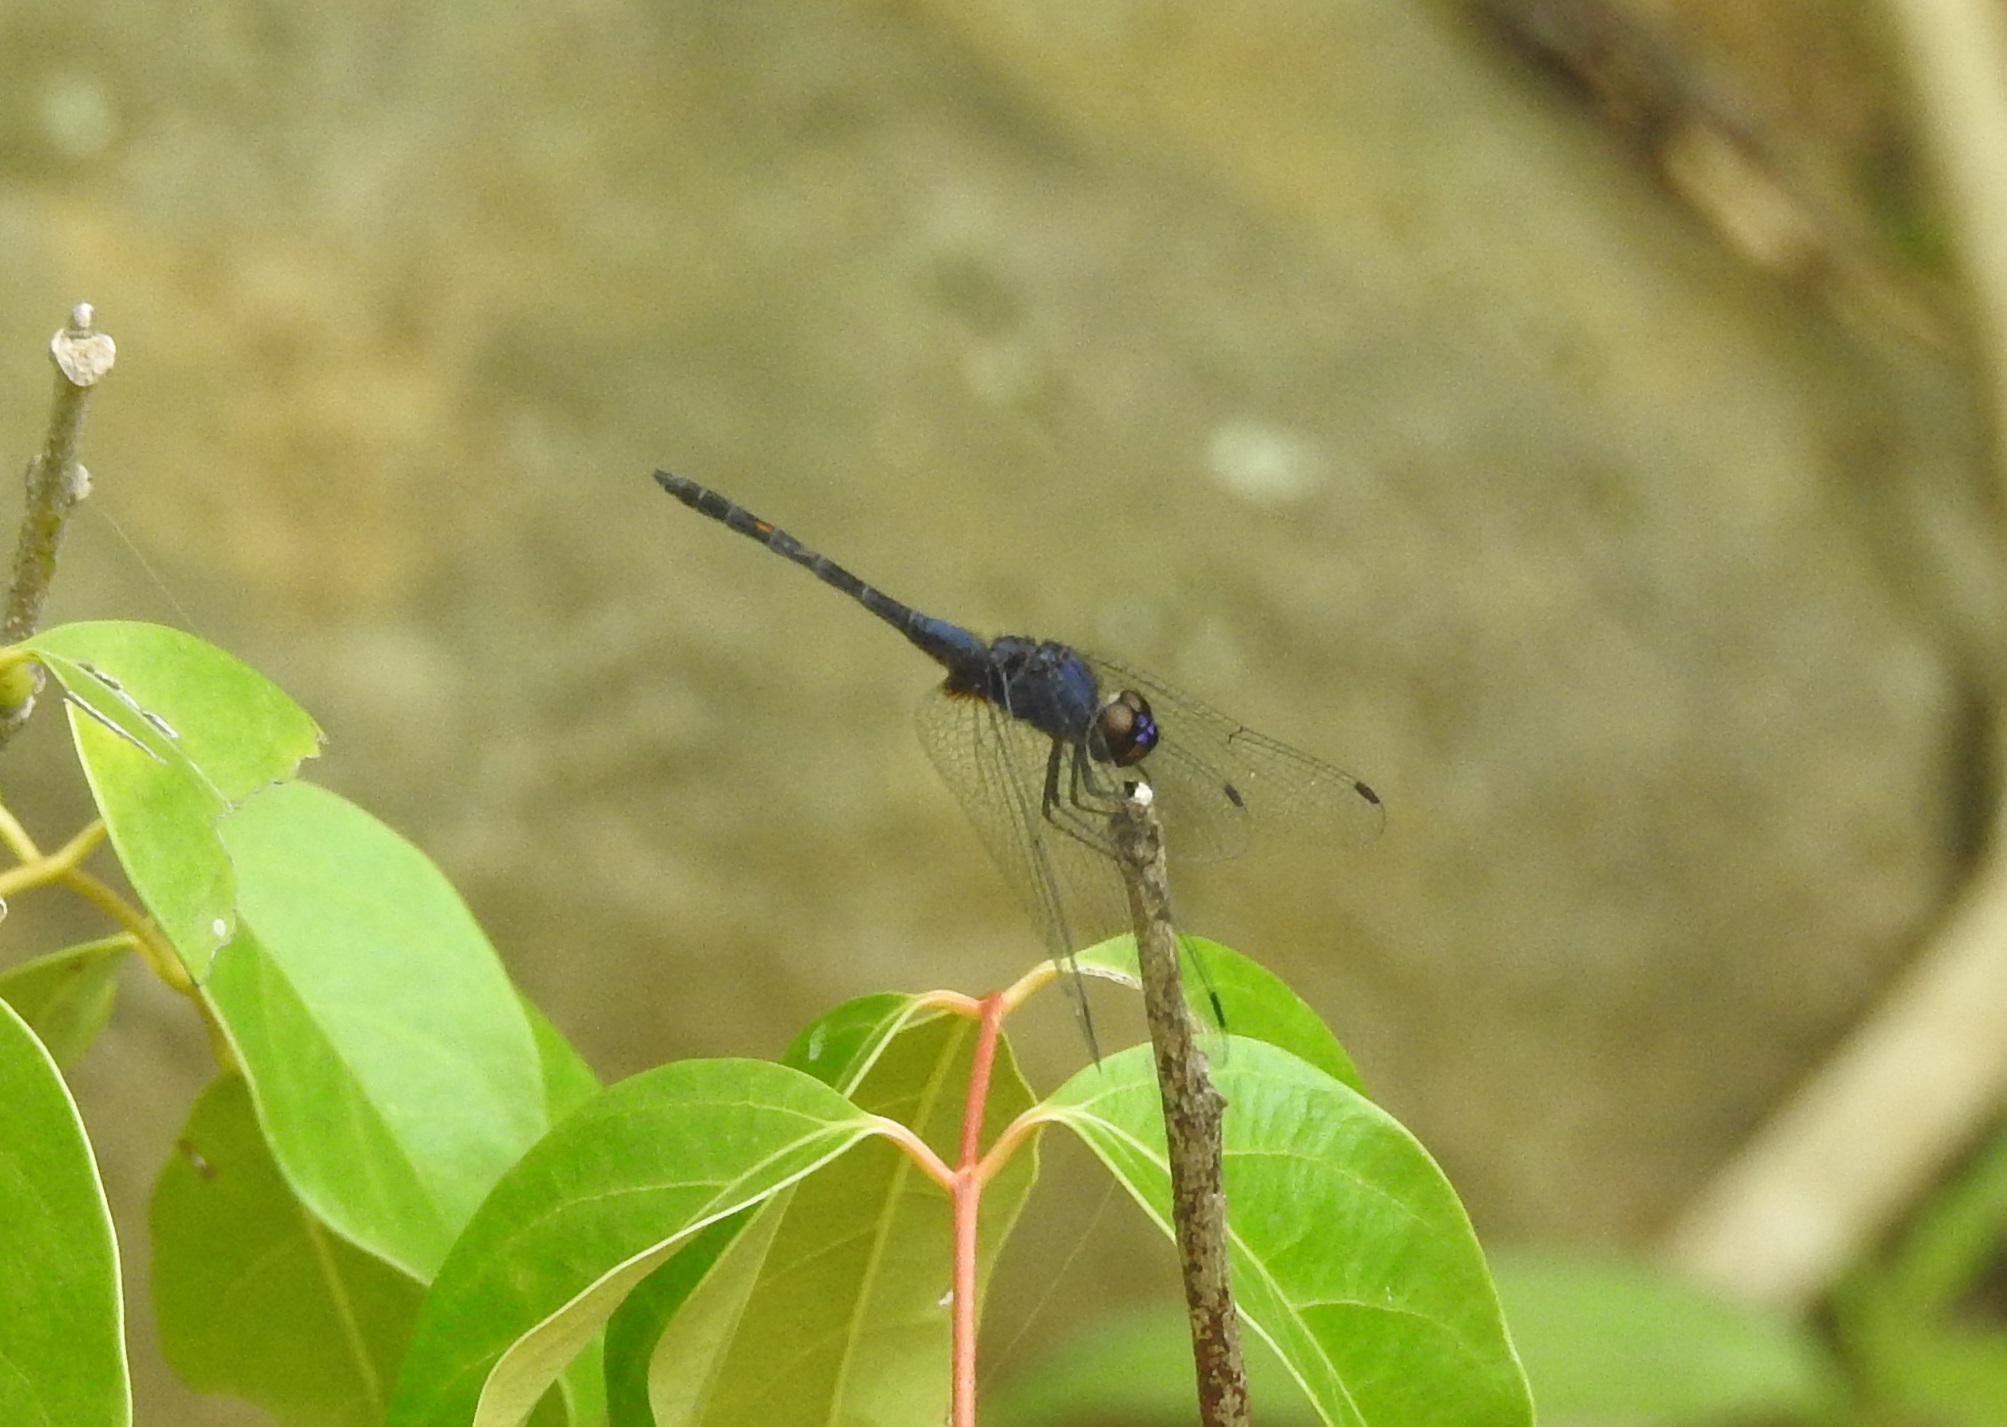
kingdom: Animalia
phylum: Arthropoda
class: Insecta
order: Odonata
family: Libellulidae
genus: Trithemis
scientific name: Trithemis festiva
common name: Indigo dropwing
